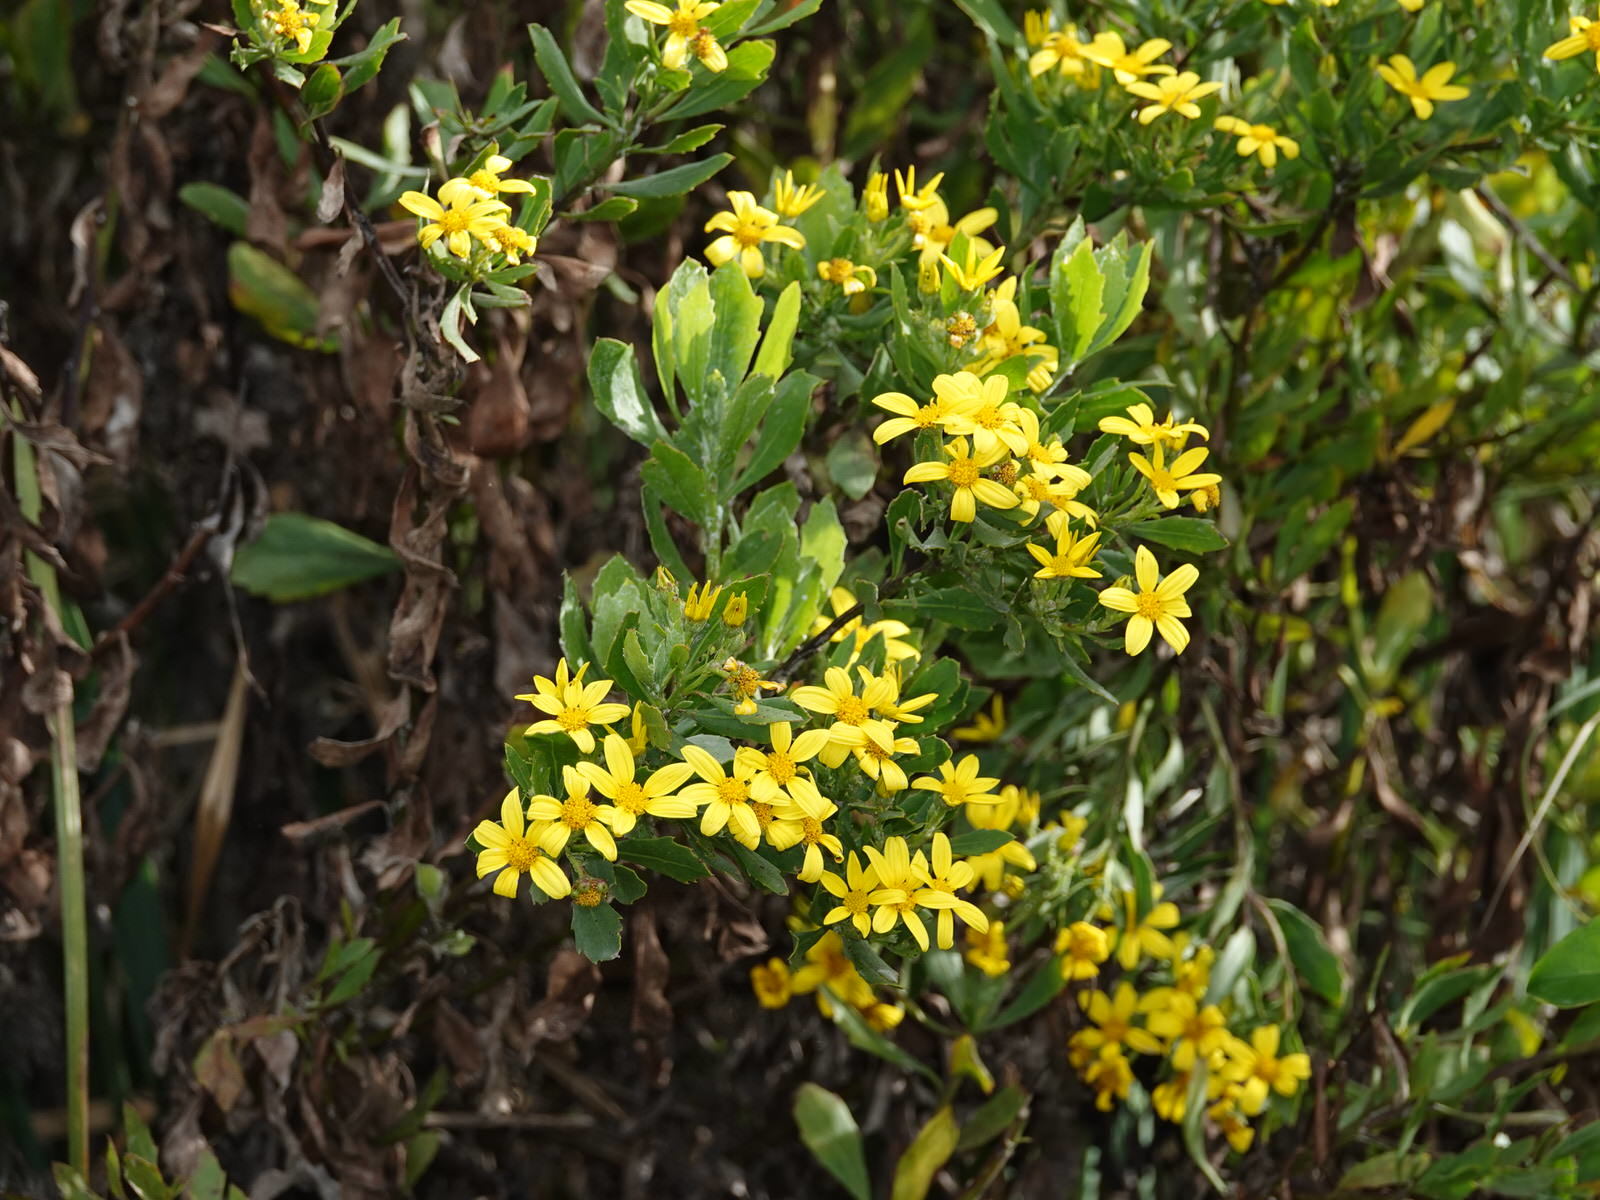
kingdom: Plantae
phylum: Tracheophyta
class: Magnoliopsida
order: Asterales
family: Asteraceae
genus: Osteospermum
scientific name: Osteospermum moniliferum
